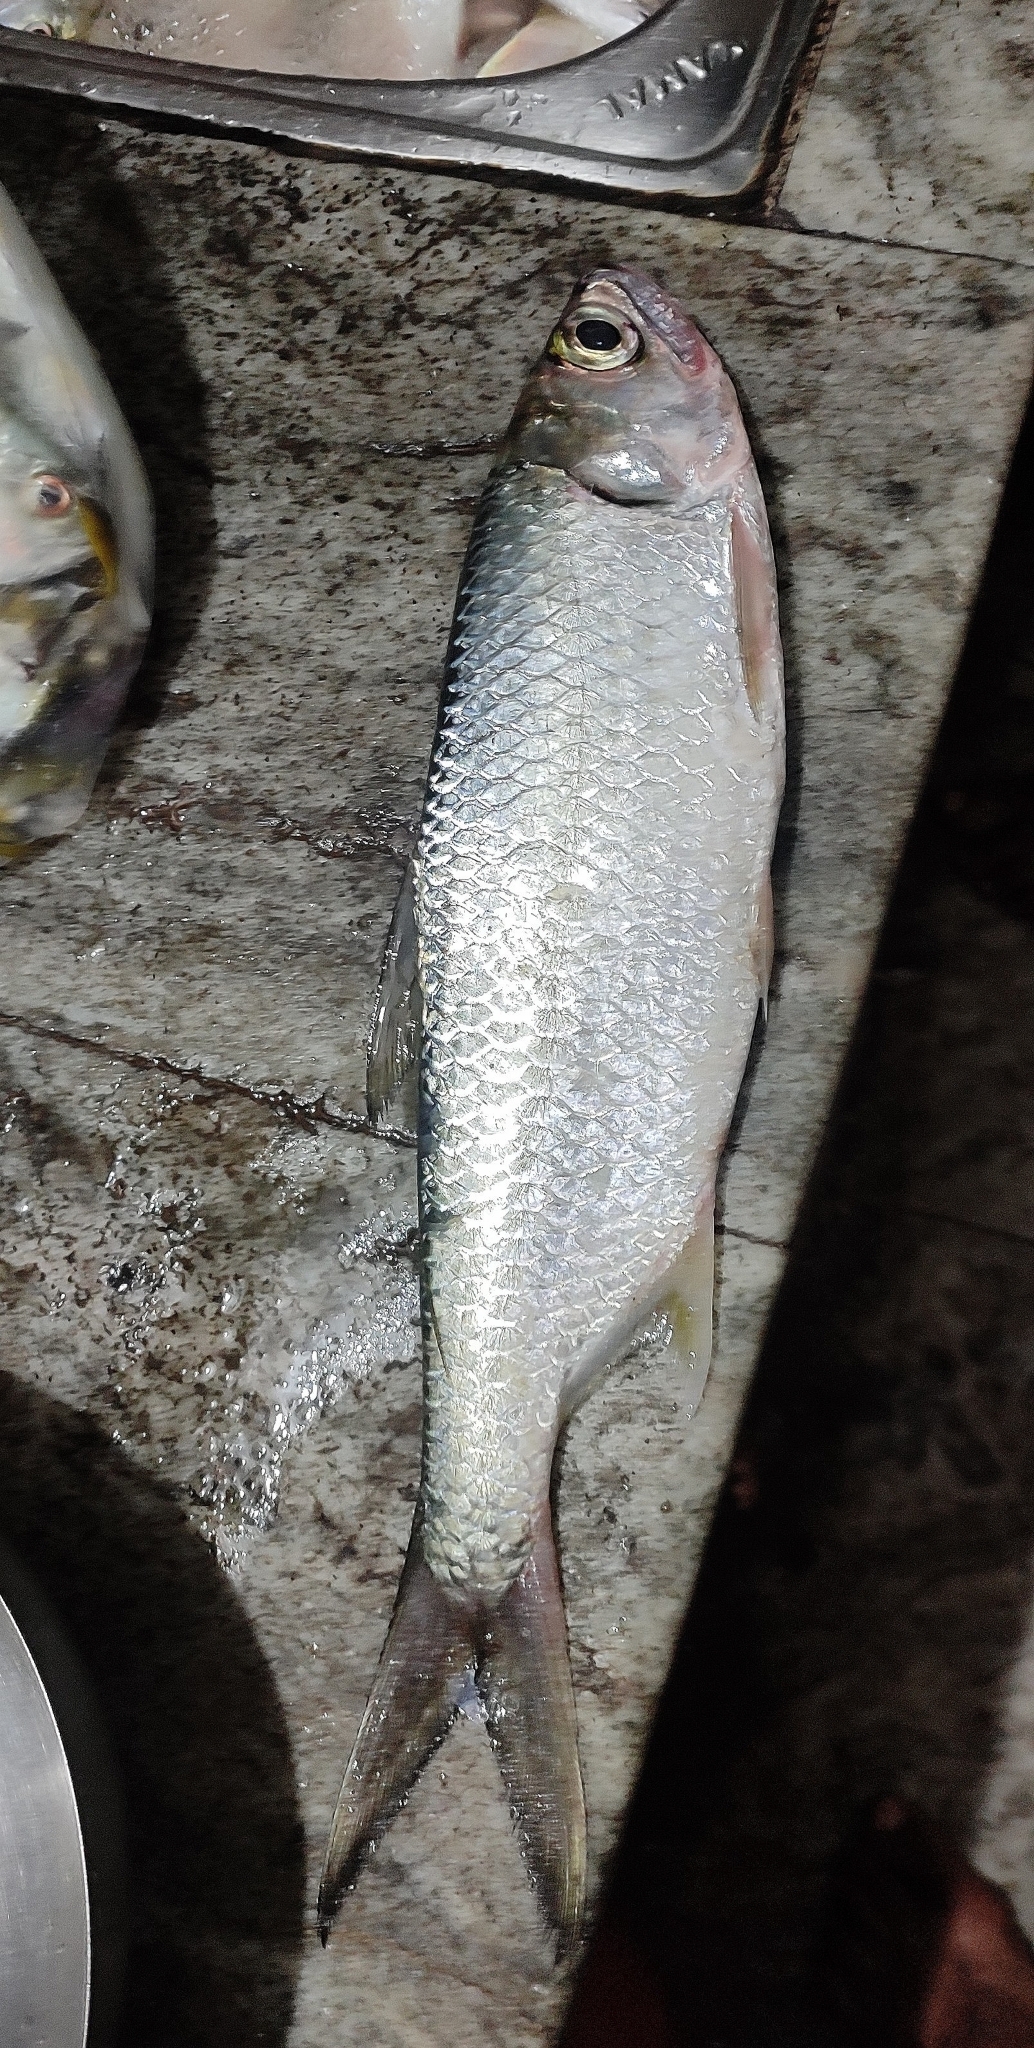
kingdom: Animalia
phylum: Chordata
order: Elopiformes
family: Megalopidae
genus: Megalops
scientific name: Megalops cyprinoides
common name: Indo-pacific tarpon
